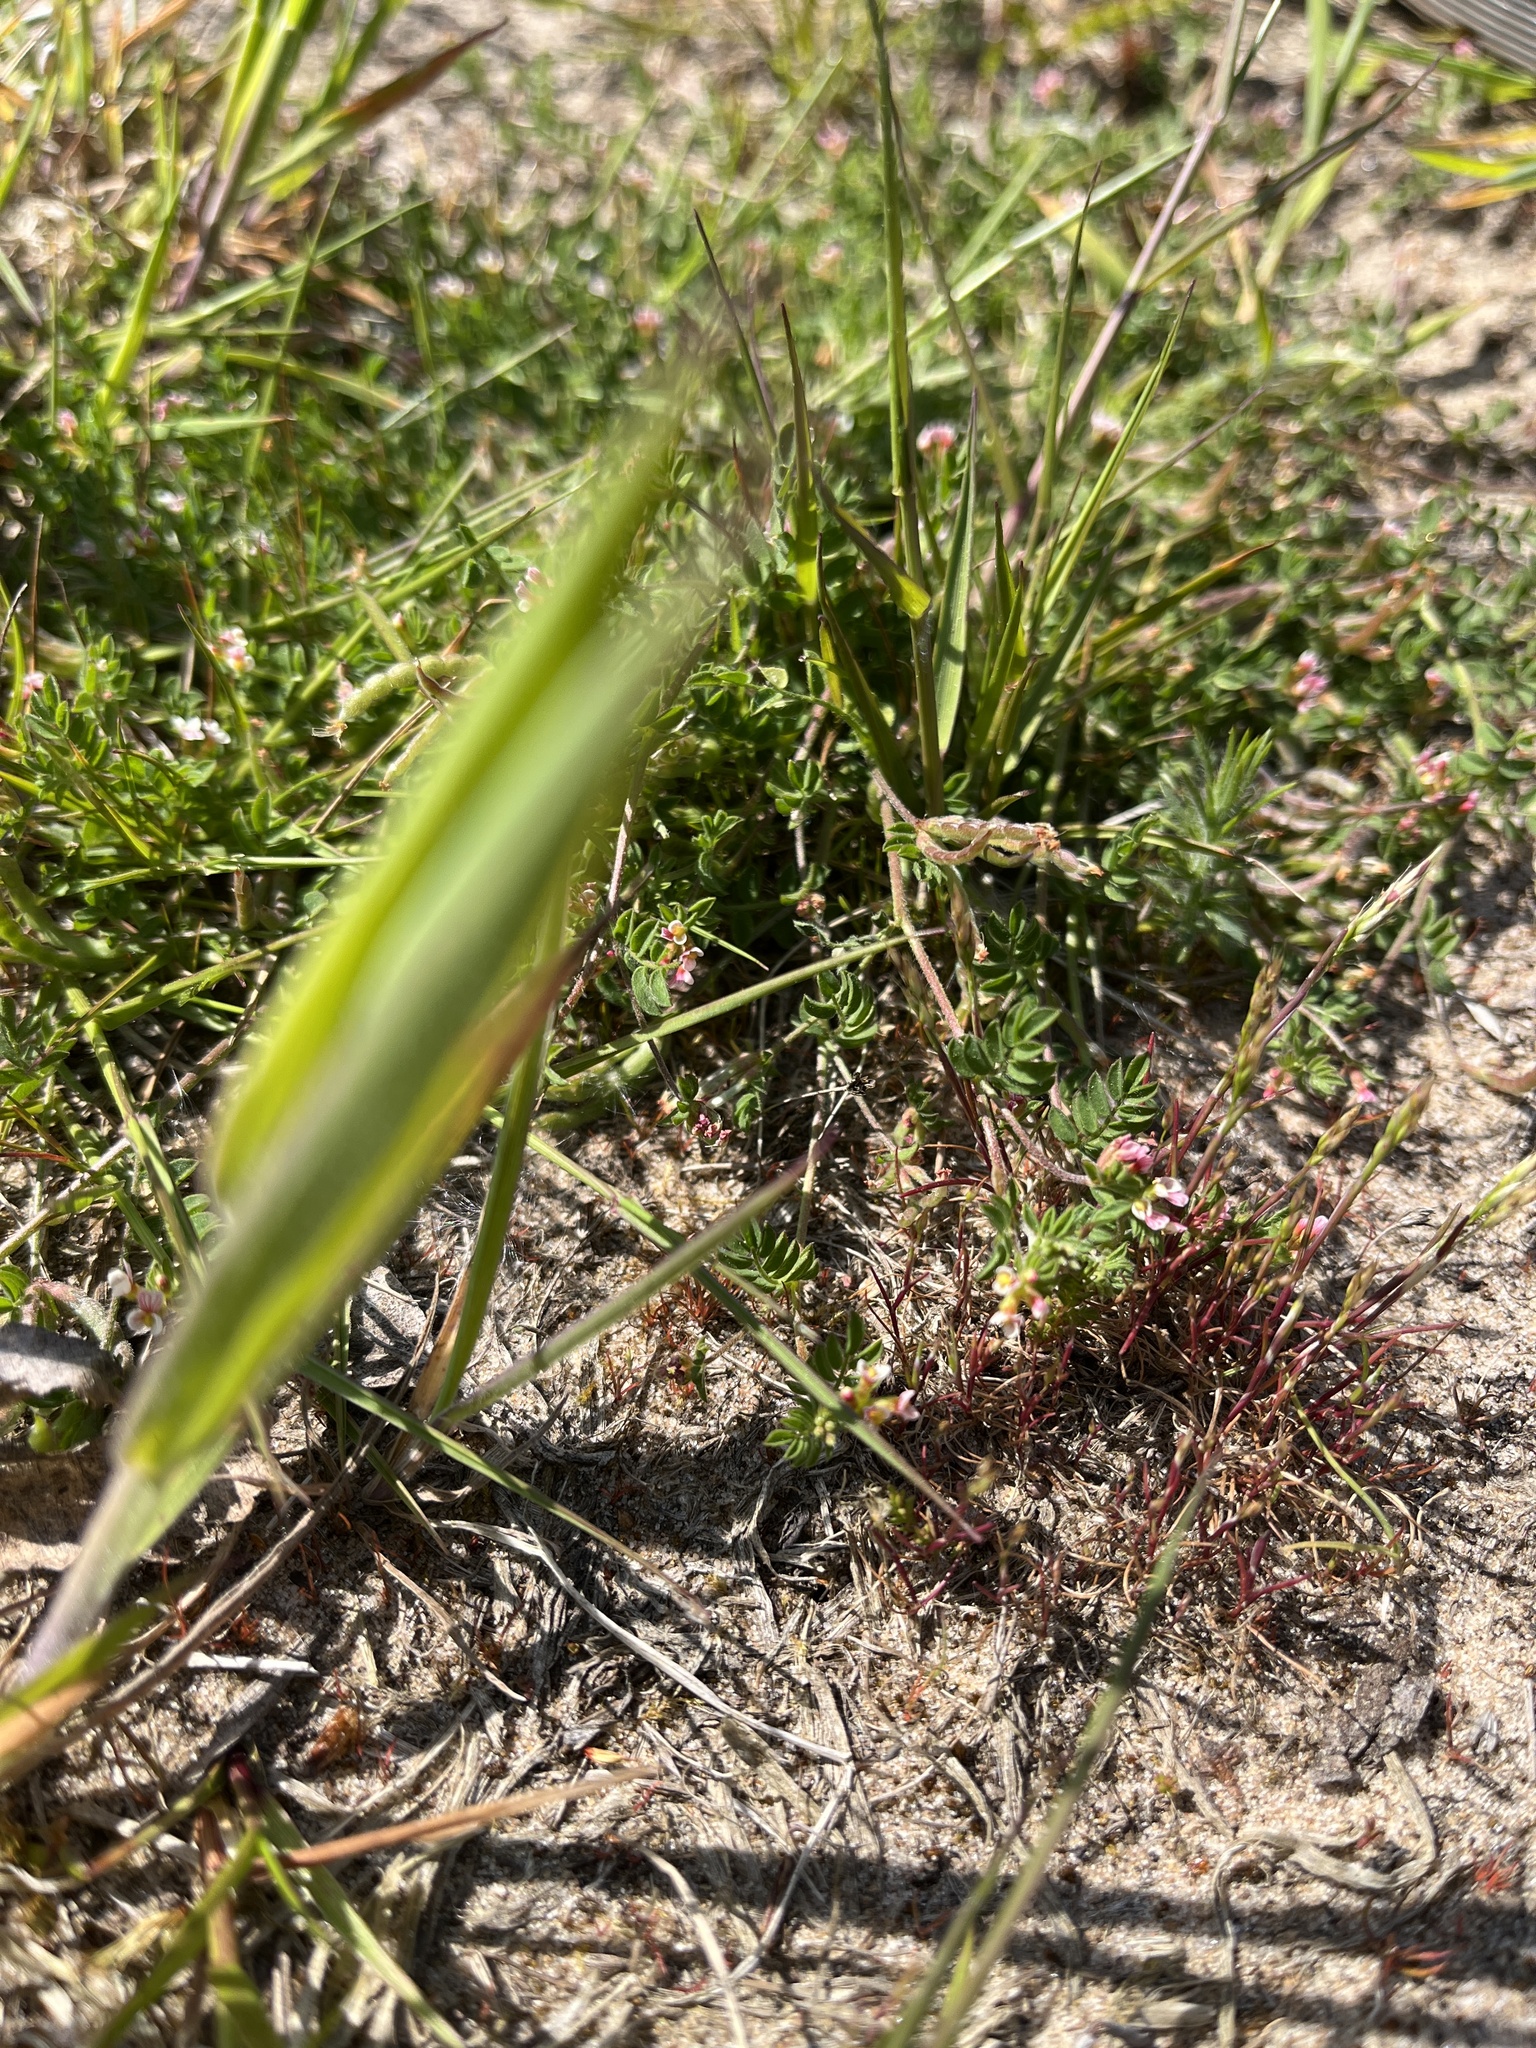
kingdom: Plantae
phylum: Tracheophyta
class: Magnoliopsida
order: Fabales
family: Fabaceae
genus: Ornithopus
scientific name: Ornithopus perpusillus
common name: Bird's-foot
